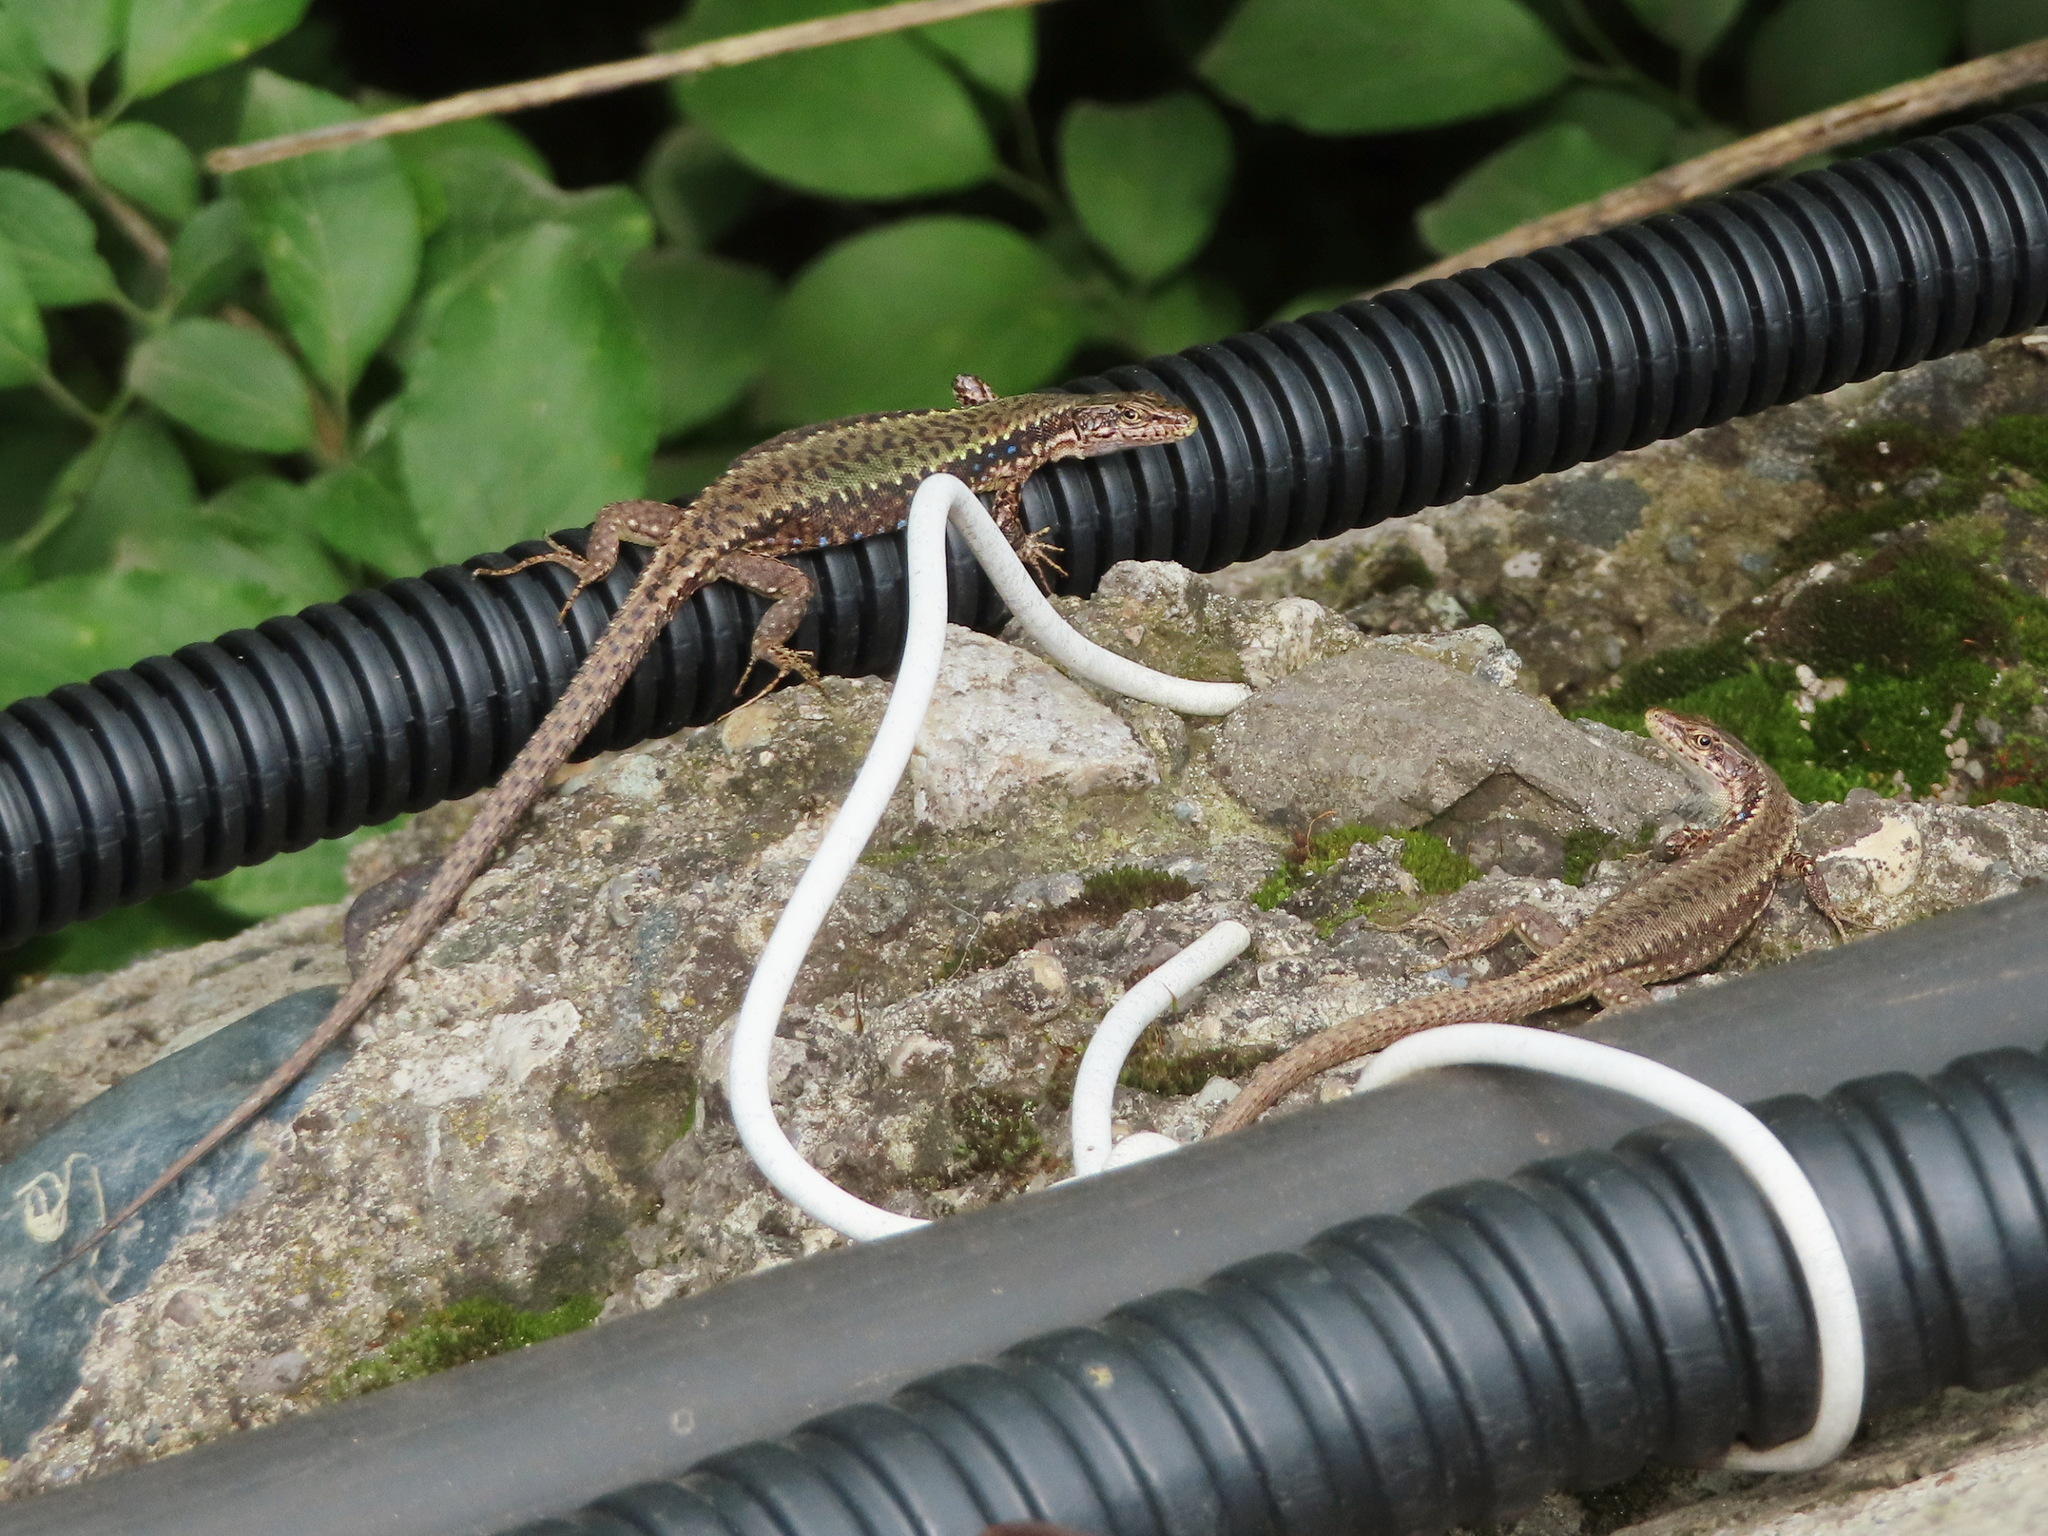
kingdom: Animalia
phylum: Chordata
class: Squamata
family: Lacertidae
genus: Darevskia
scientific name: Darevskia armeniaca
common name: Armenian lizard
